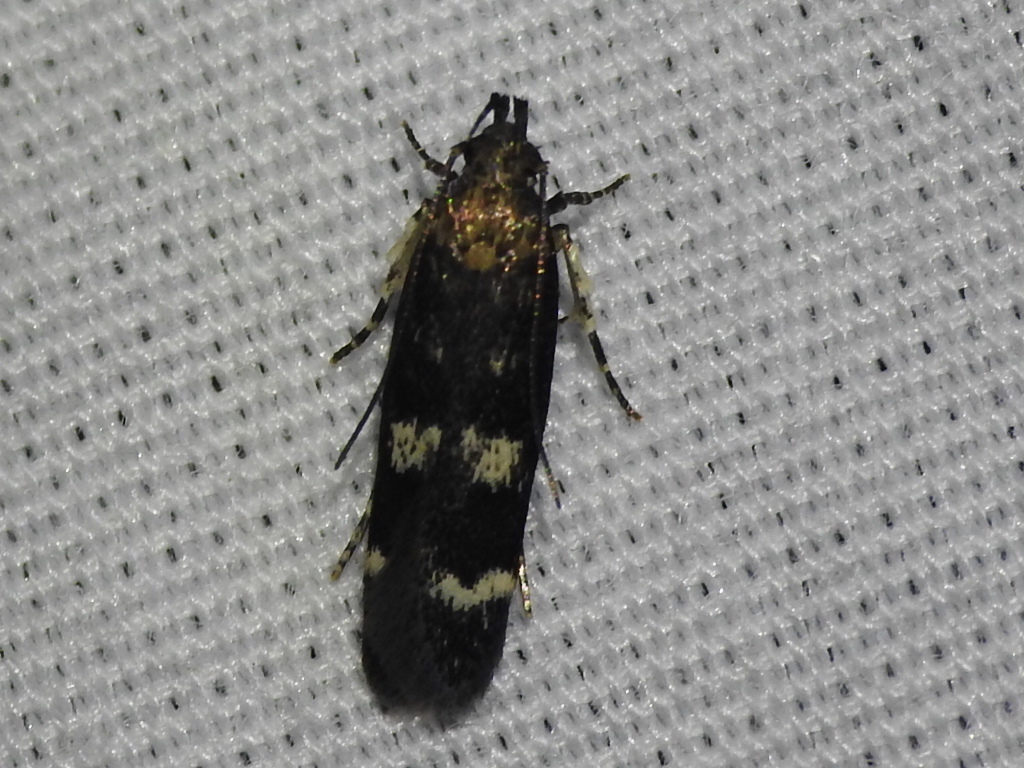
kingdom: Animalia
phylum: Arthropoda
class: Insecta
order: Lepidoptera
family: Gelechiidae
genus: Fascista
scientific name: Fascista bimaculella
